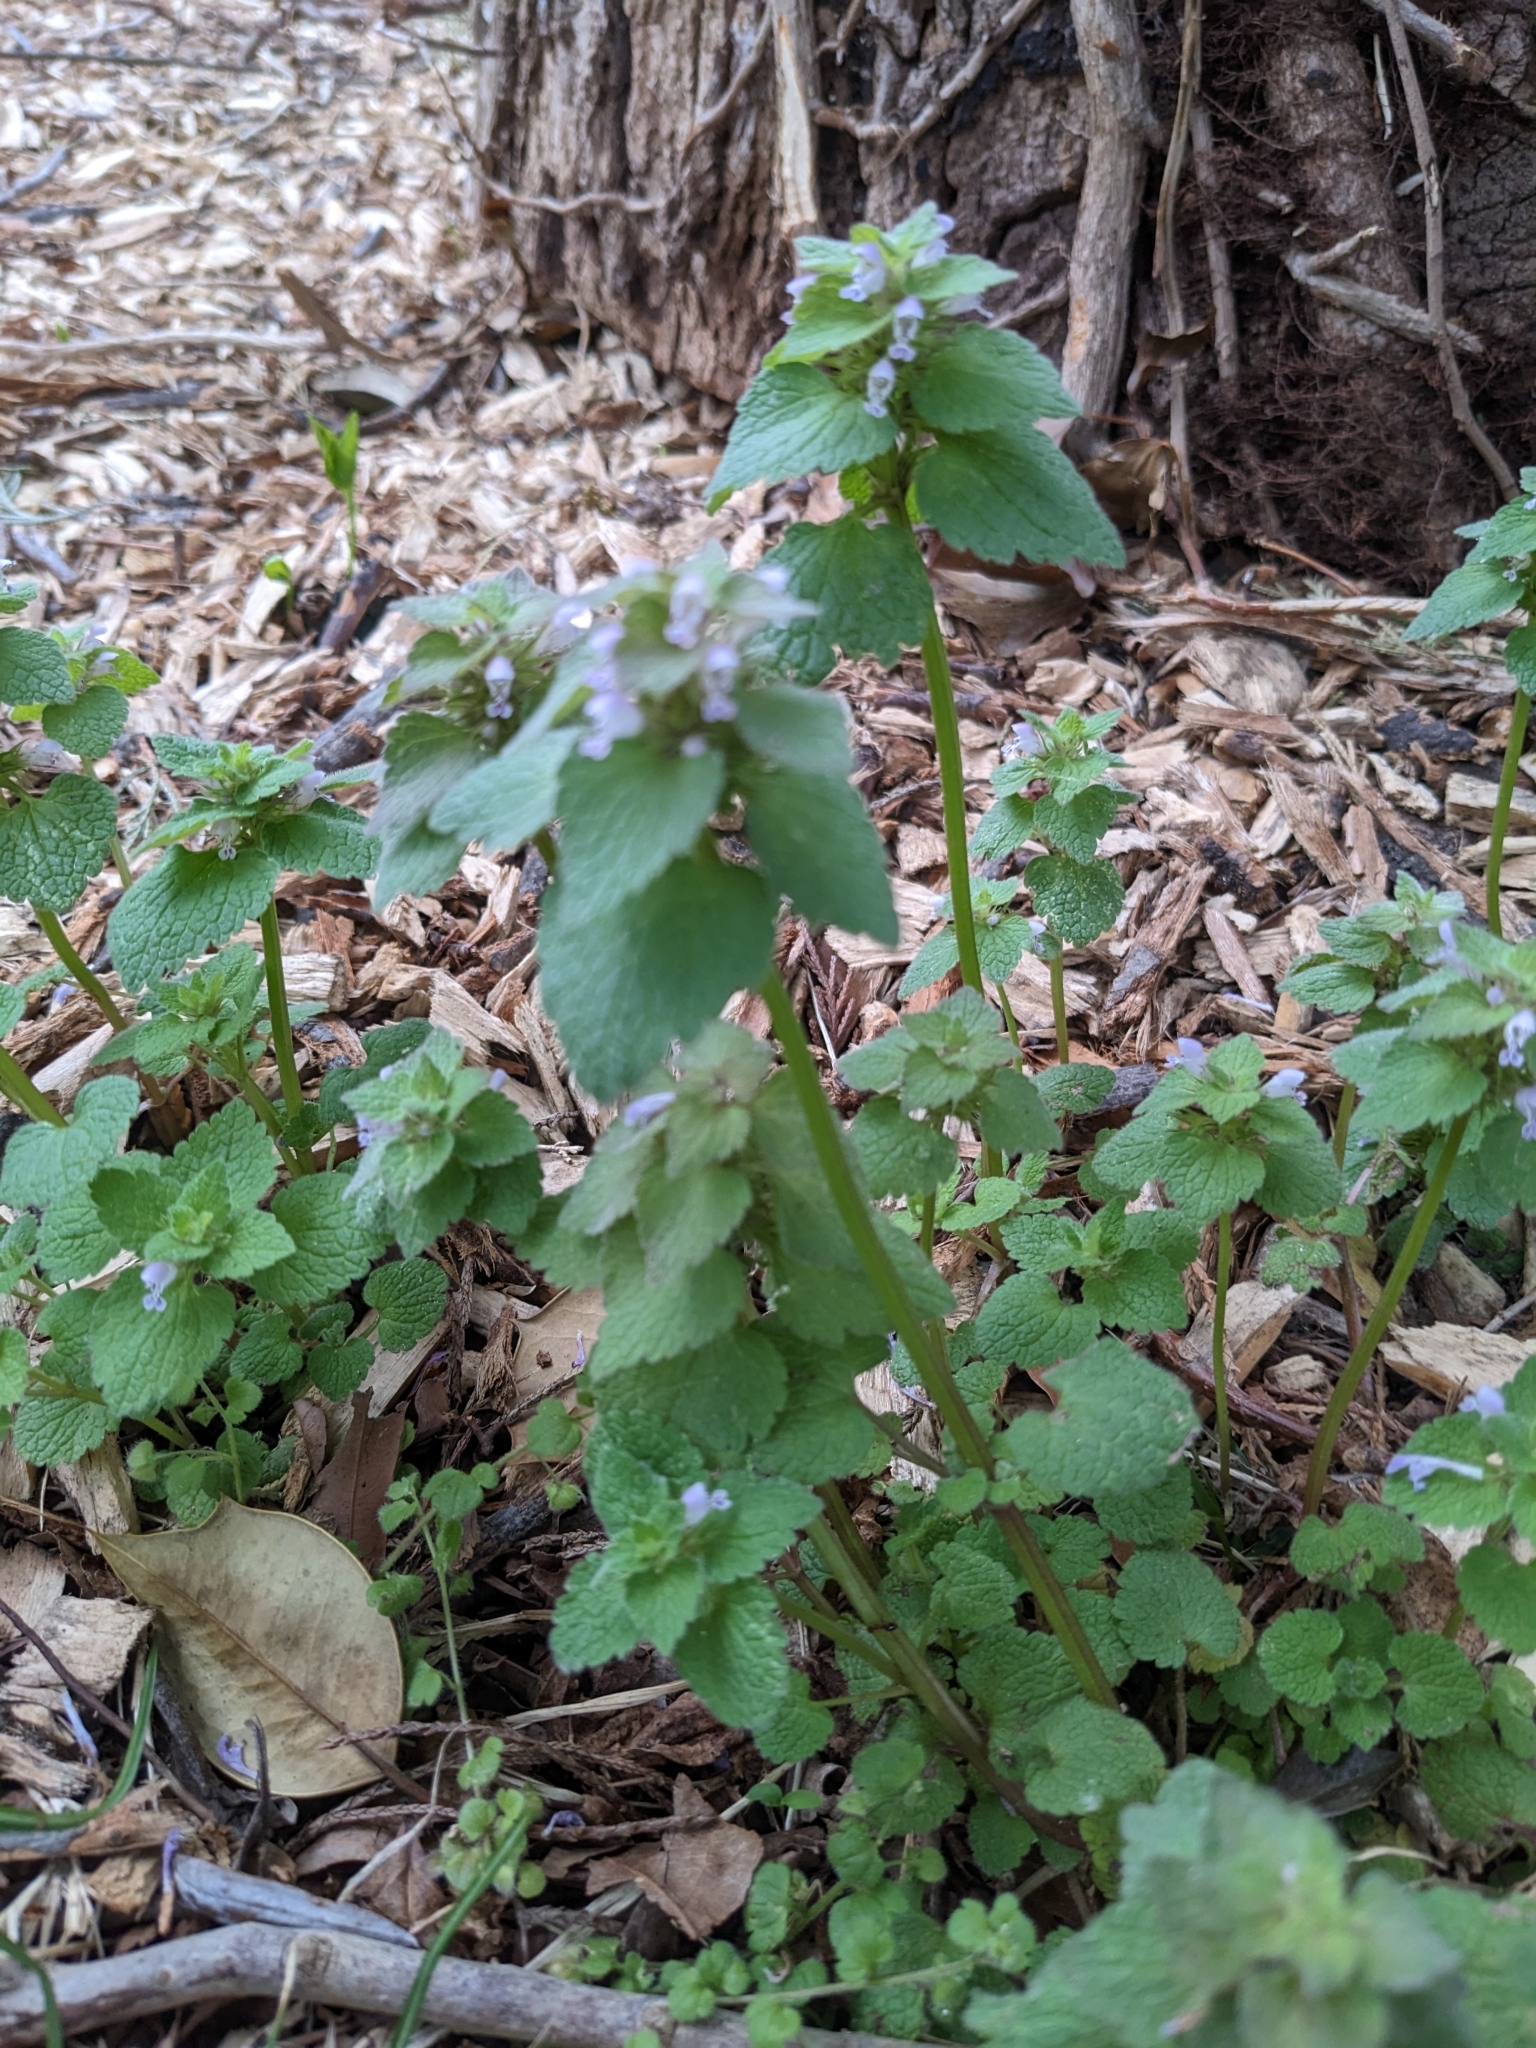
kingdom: Plantae
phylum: Tracheophyta
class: Magnoliopsida
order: Lamiales
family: Lamiaceae
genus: Lamium
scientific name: Lamium purpureum
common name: Red dead-nettle
